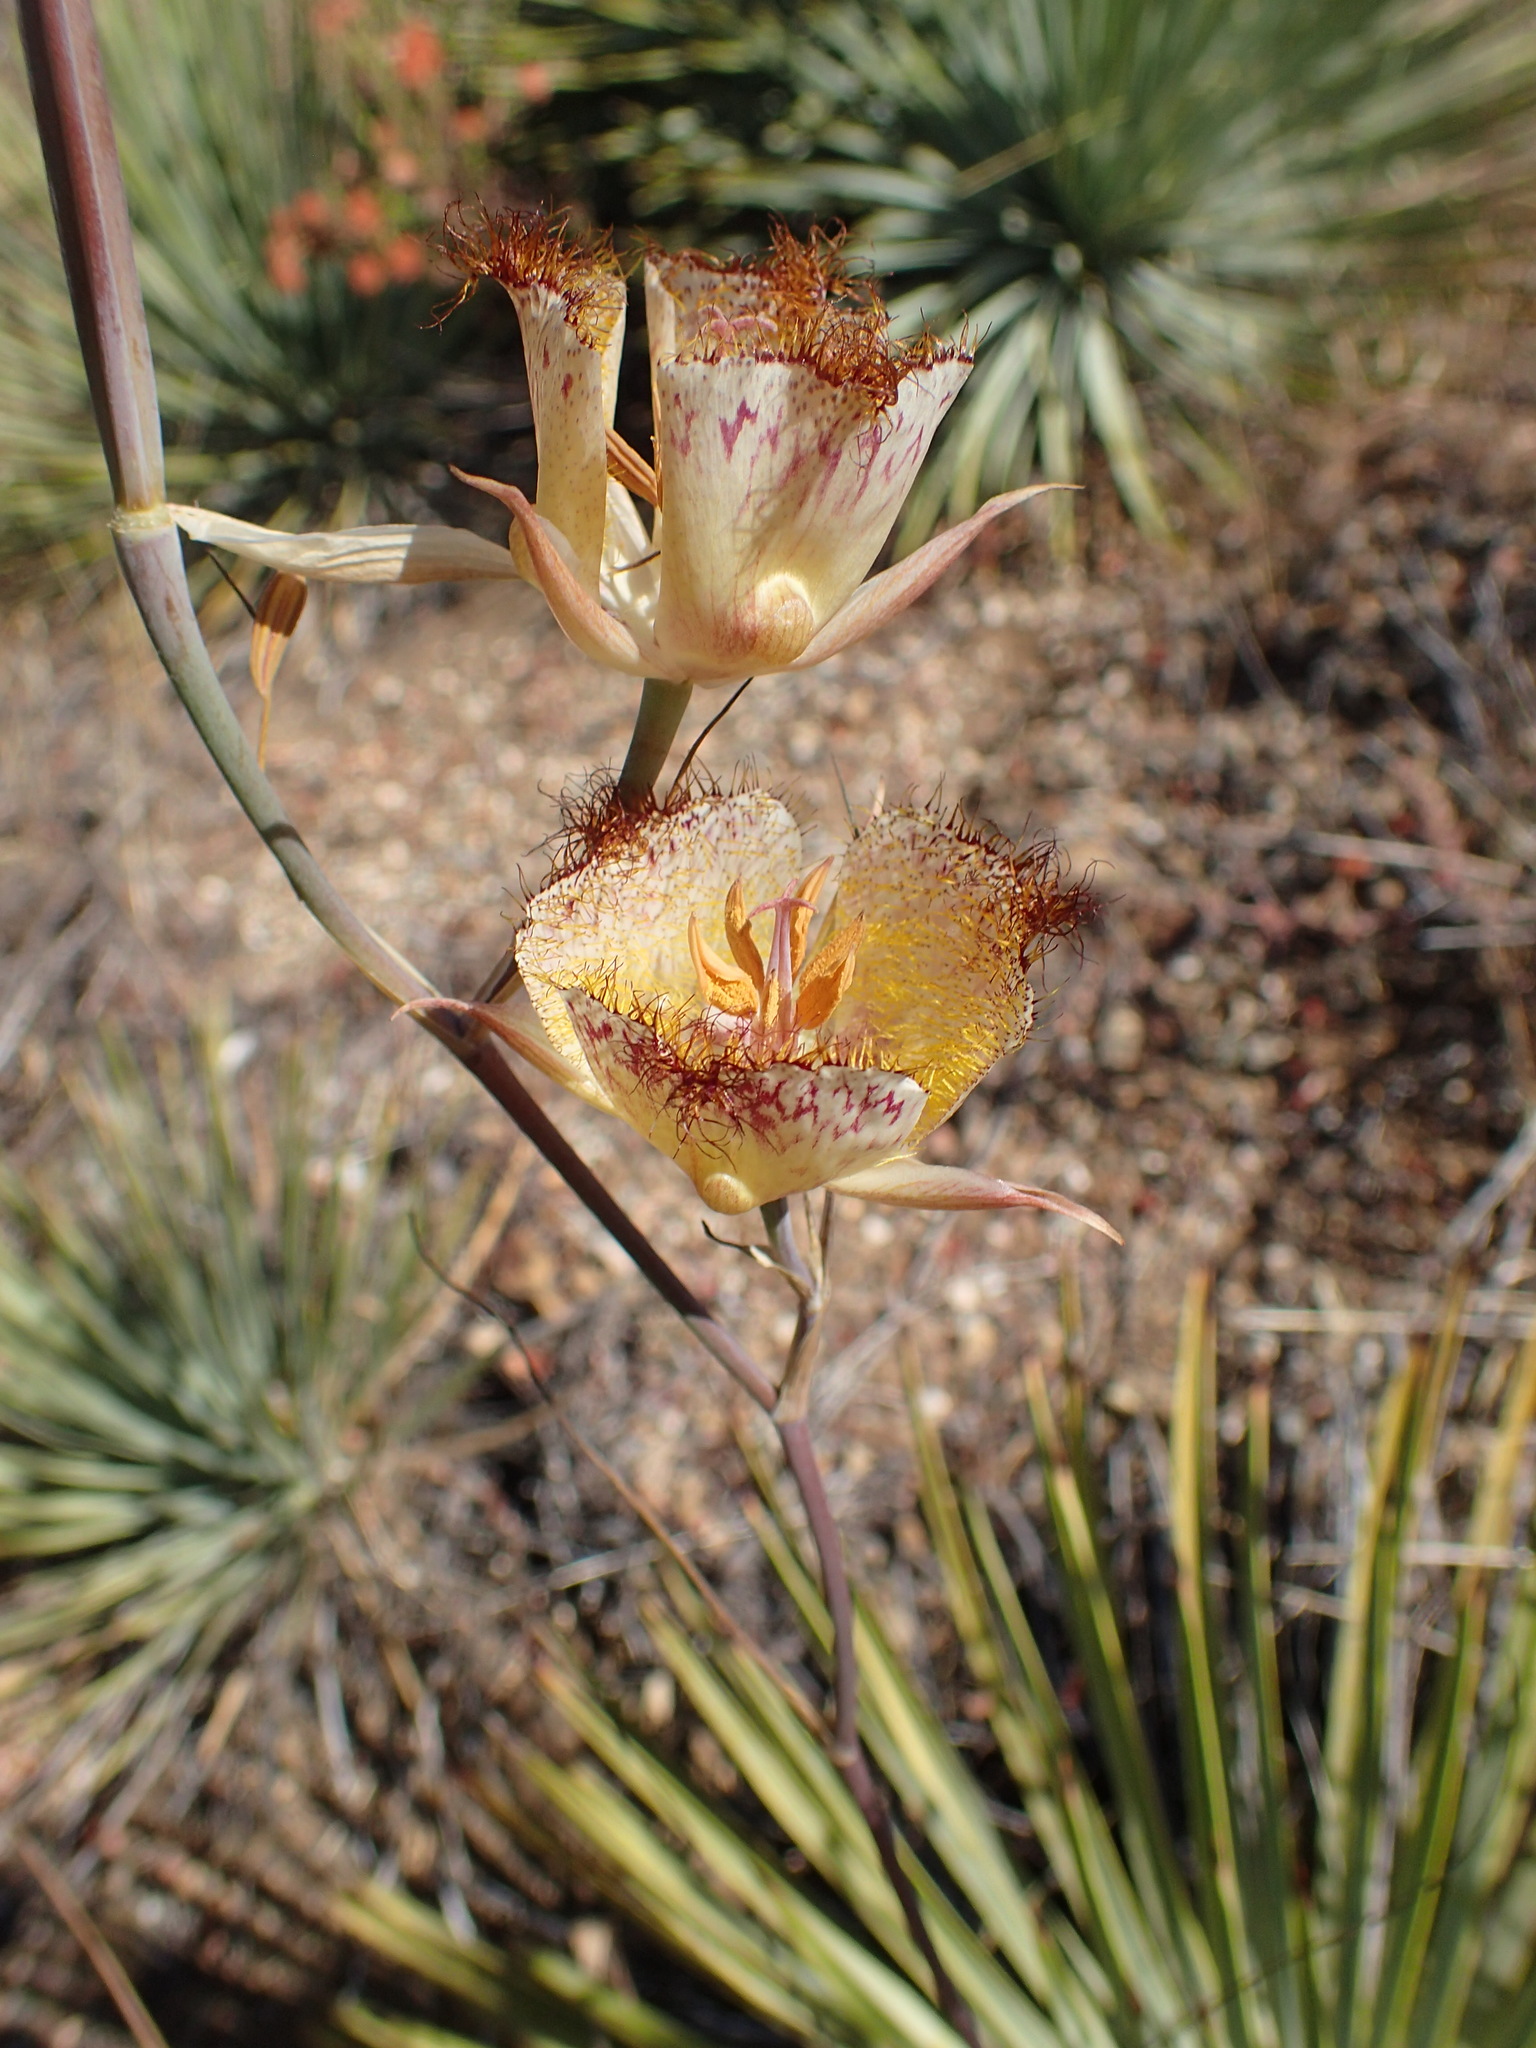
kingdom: Plantae
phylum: Tracheophyta
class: Liliopsida
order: Liliales
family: Liliaceae
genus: Calochortus
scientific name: Calochortus fimbriatus
